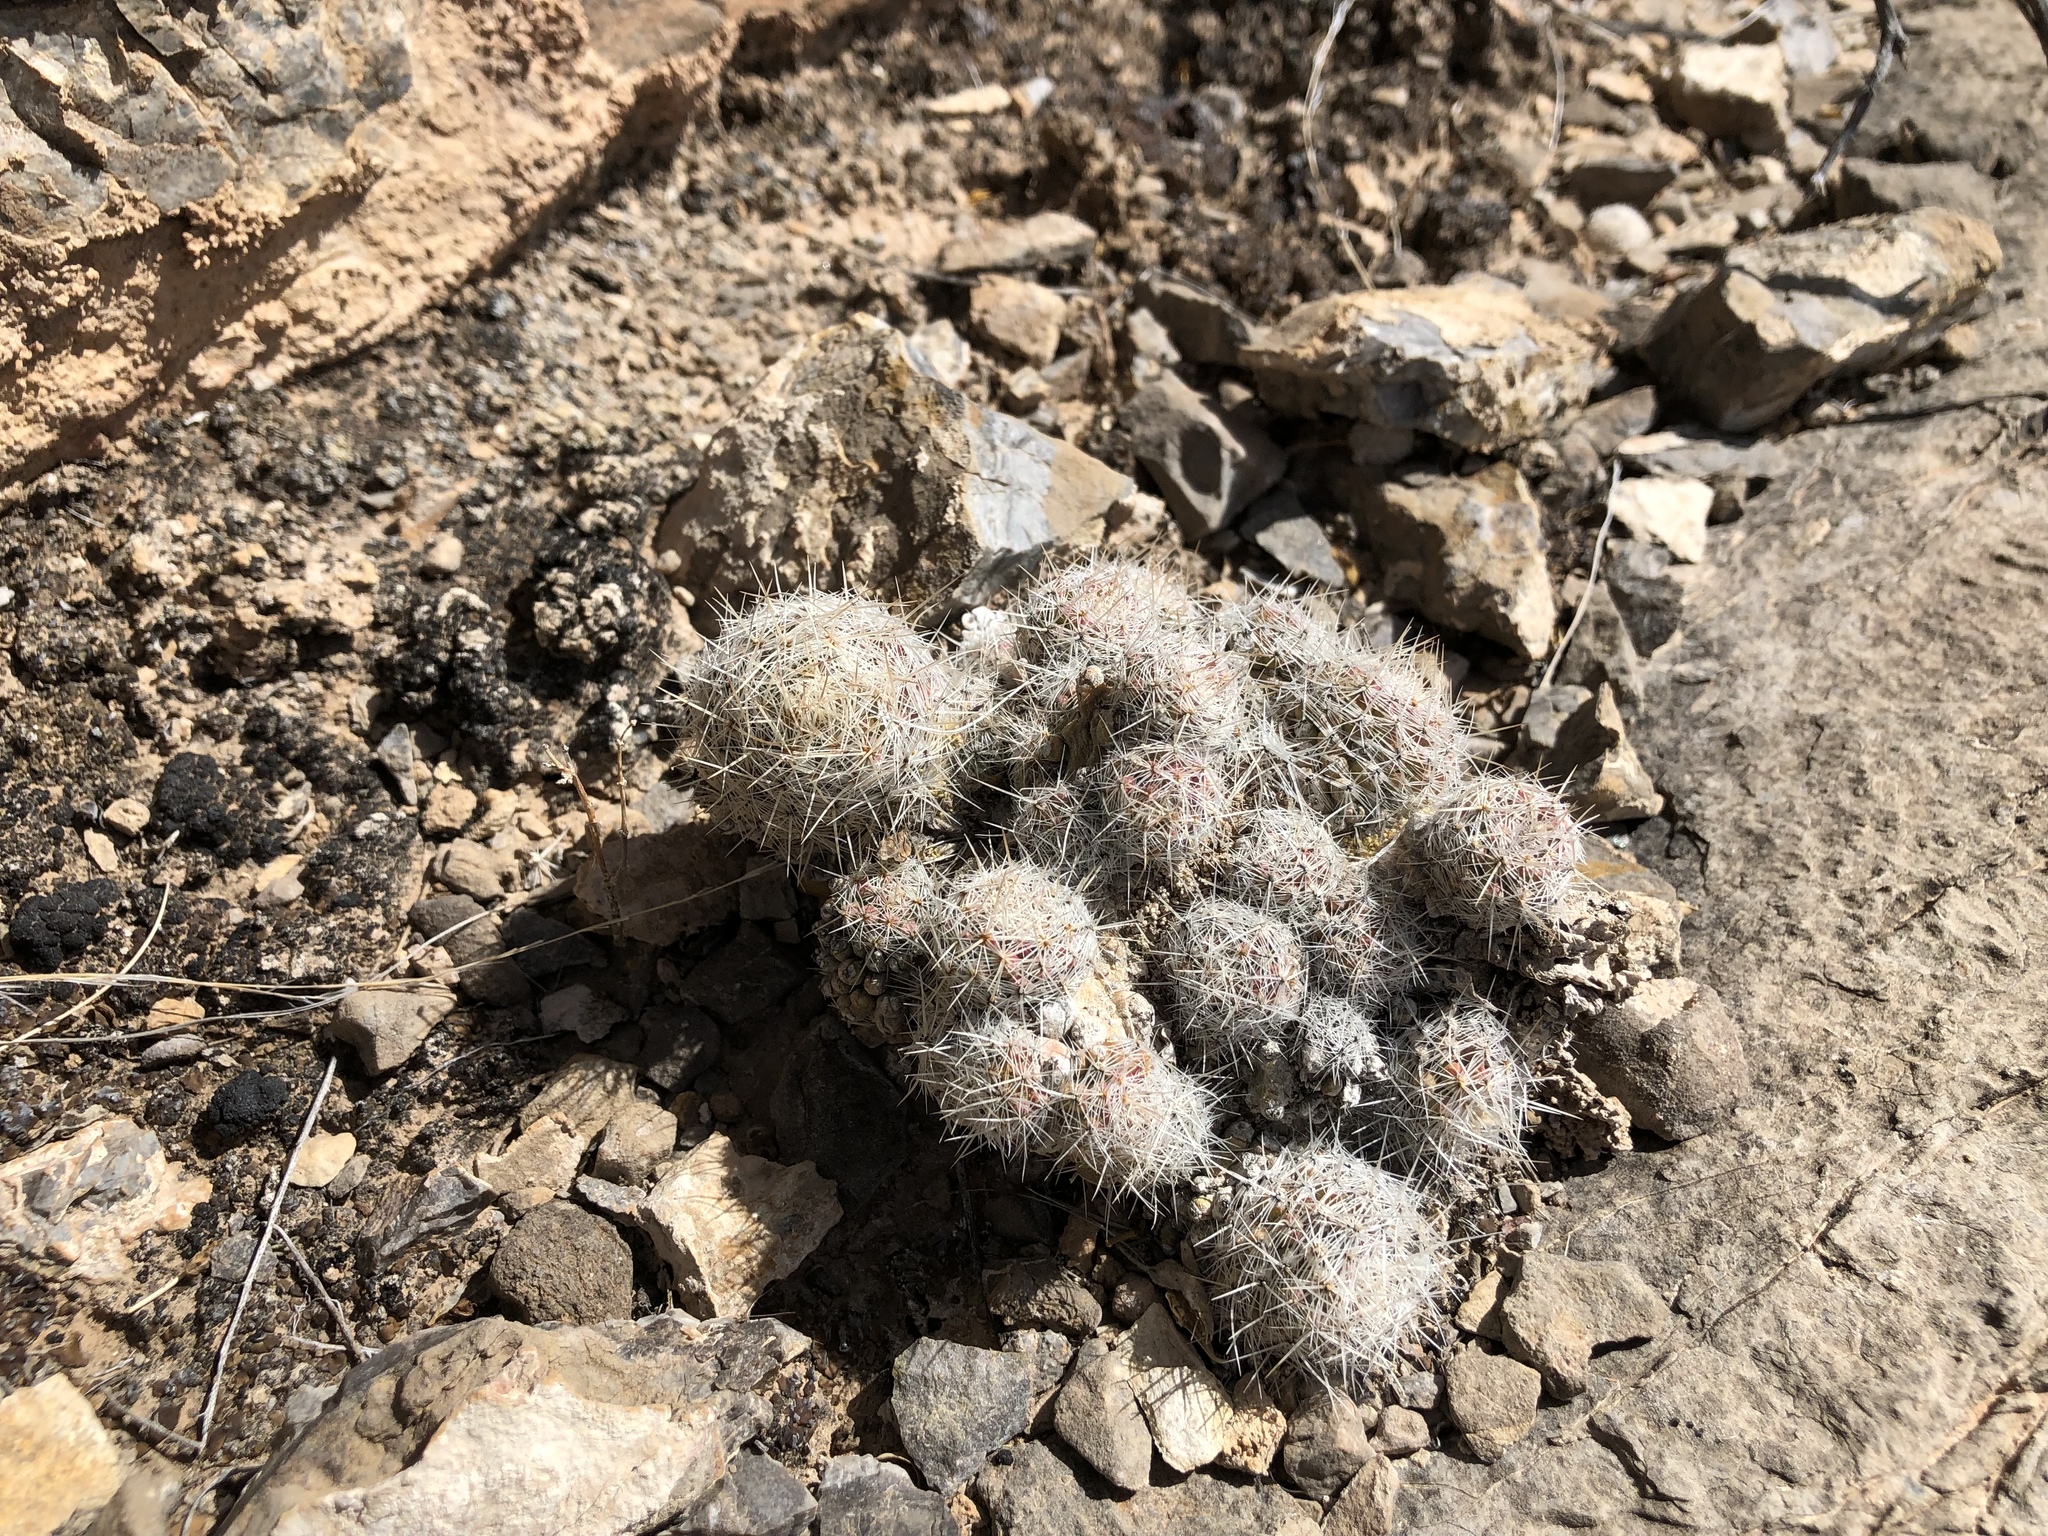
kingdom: Plantae
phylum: Tracheophyta
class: Magnoliopsida
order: Caryophyllales
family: Cactaceae
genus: Pelecyphora
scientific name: Pelecyphora tuberculosa
